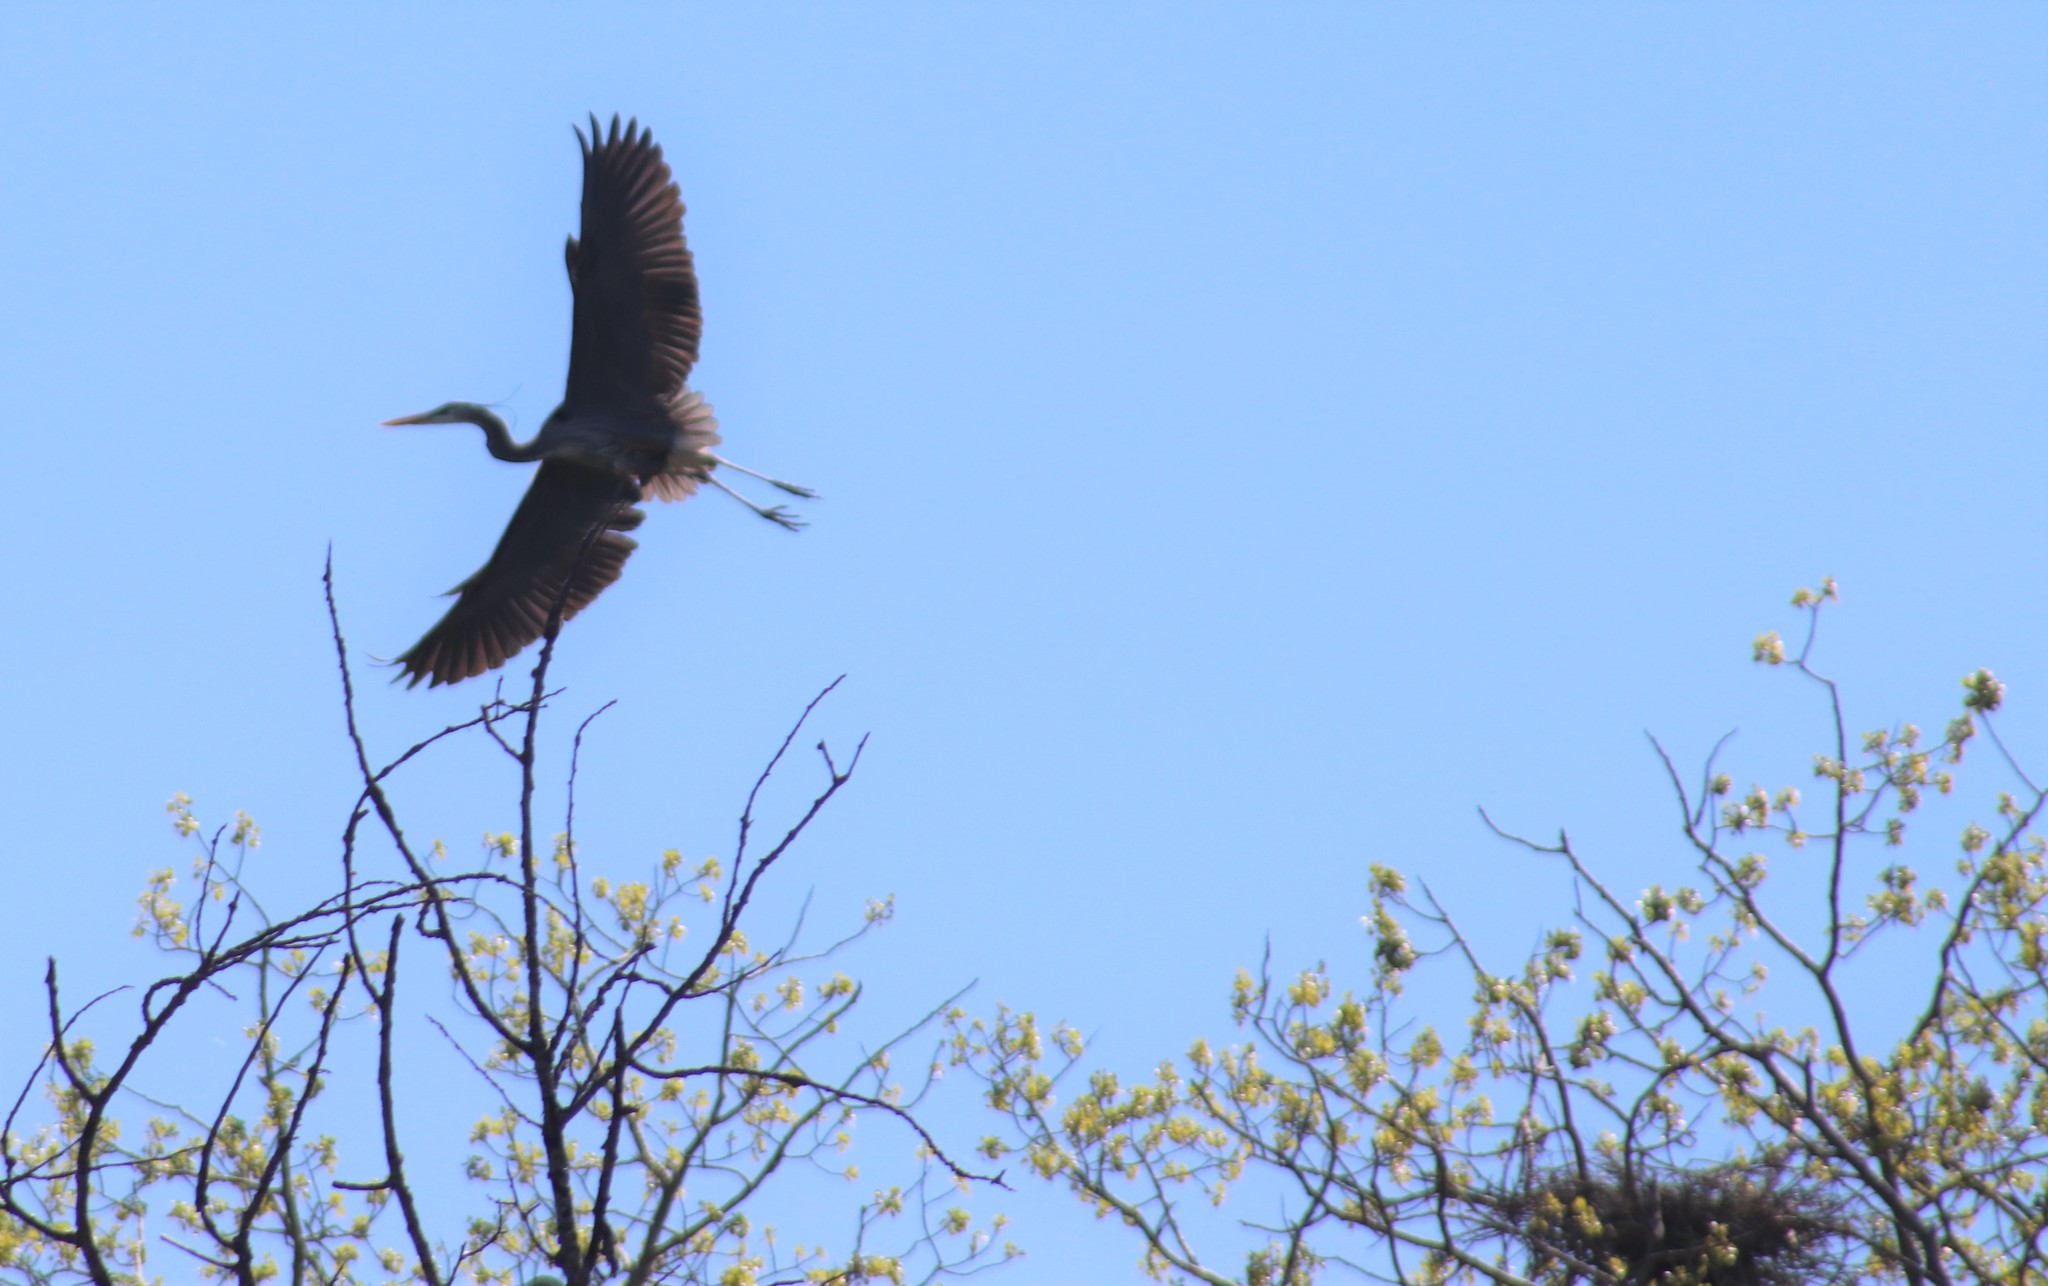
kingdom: Animalia
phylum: Chordata
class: Aves
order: Pelecaniformes
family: Ardeidae
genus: Ardea
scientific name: Ardea herodias
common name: Great blue heron
